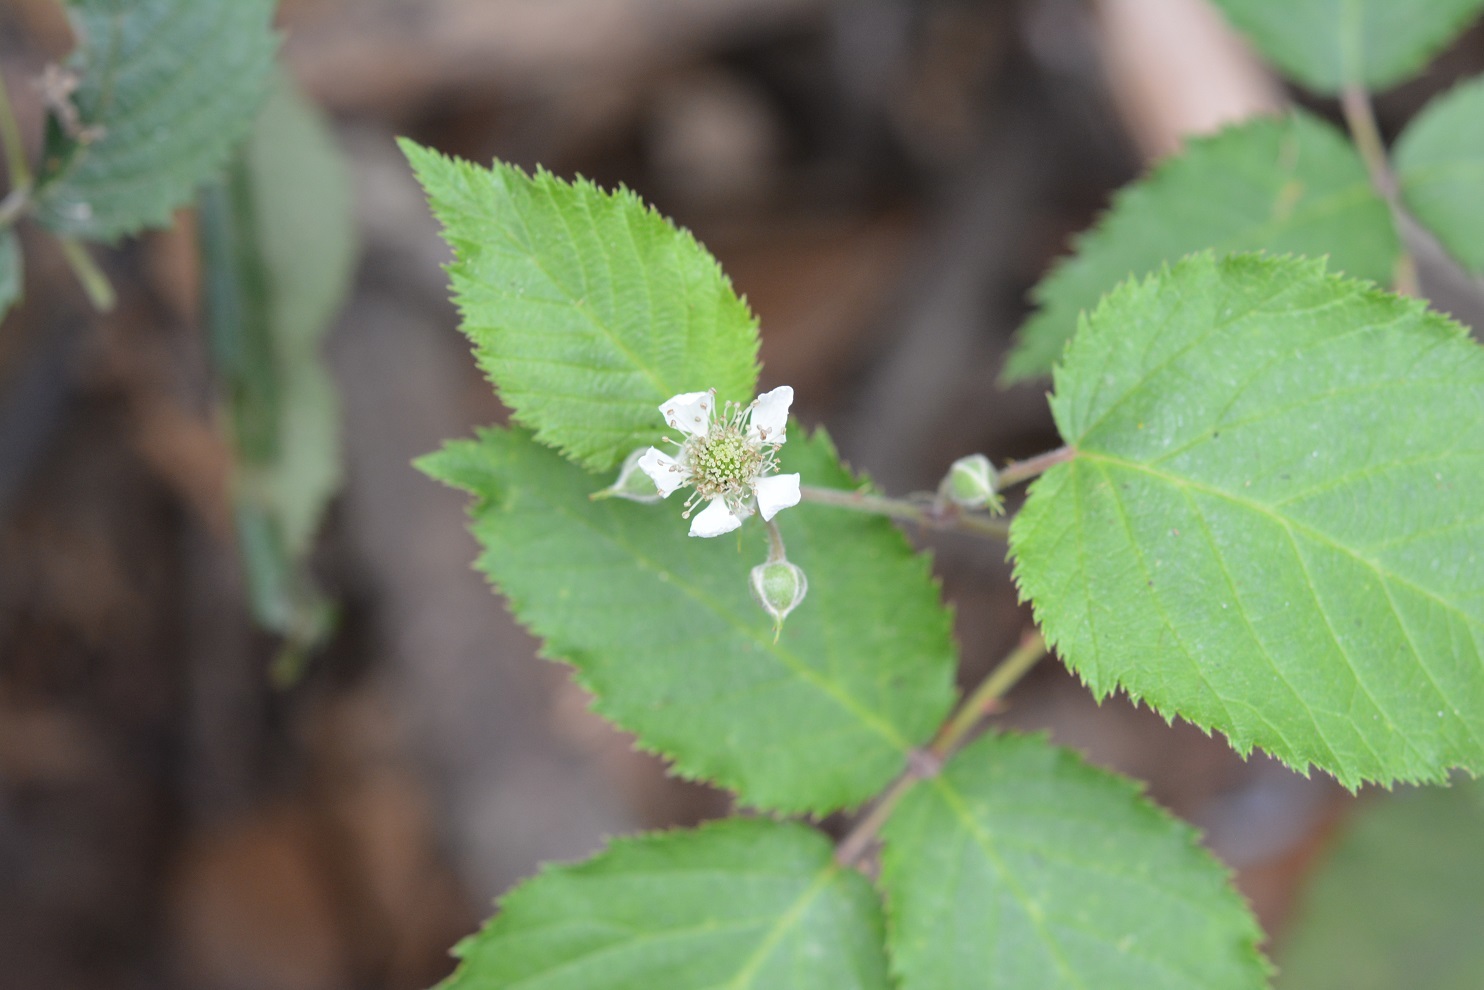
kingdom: Plantae
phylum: Tracheophyta
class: Magnoliopsida
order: Rosales
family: Rosaceae
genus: Rubus
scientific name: Rubus adenotrichos
